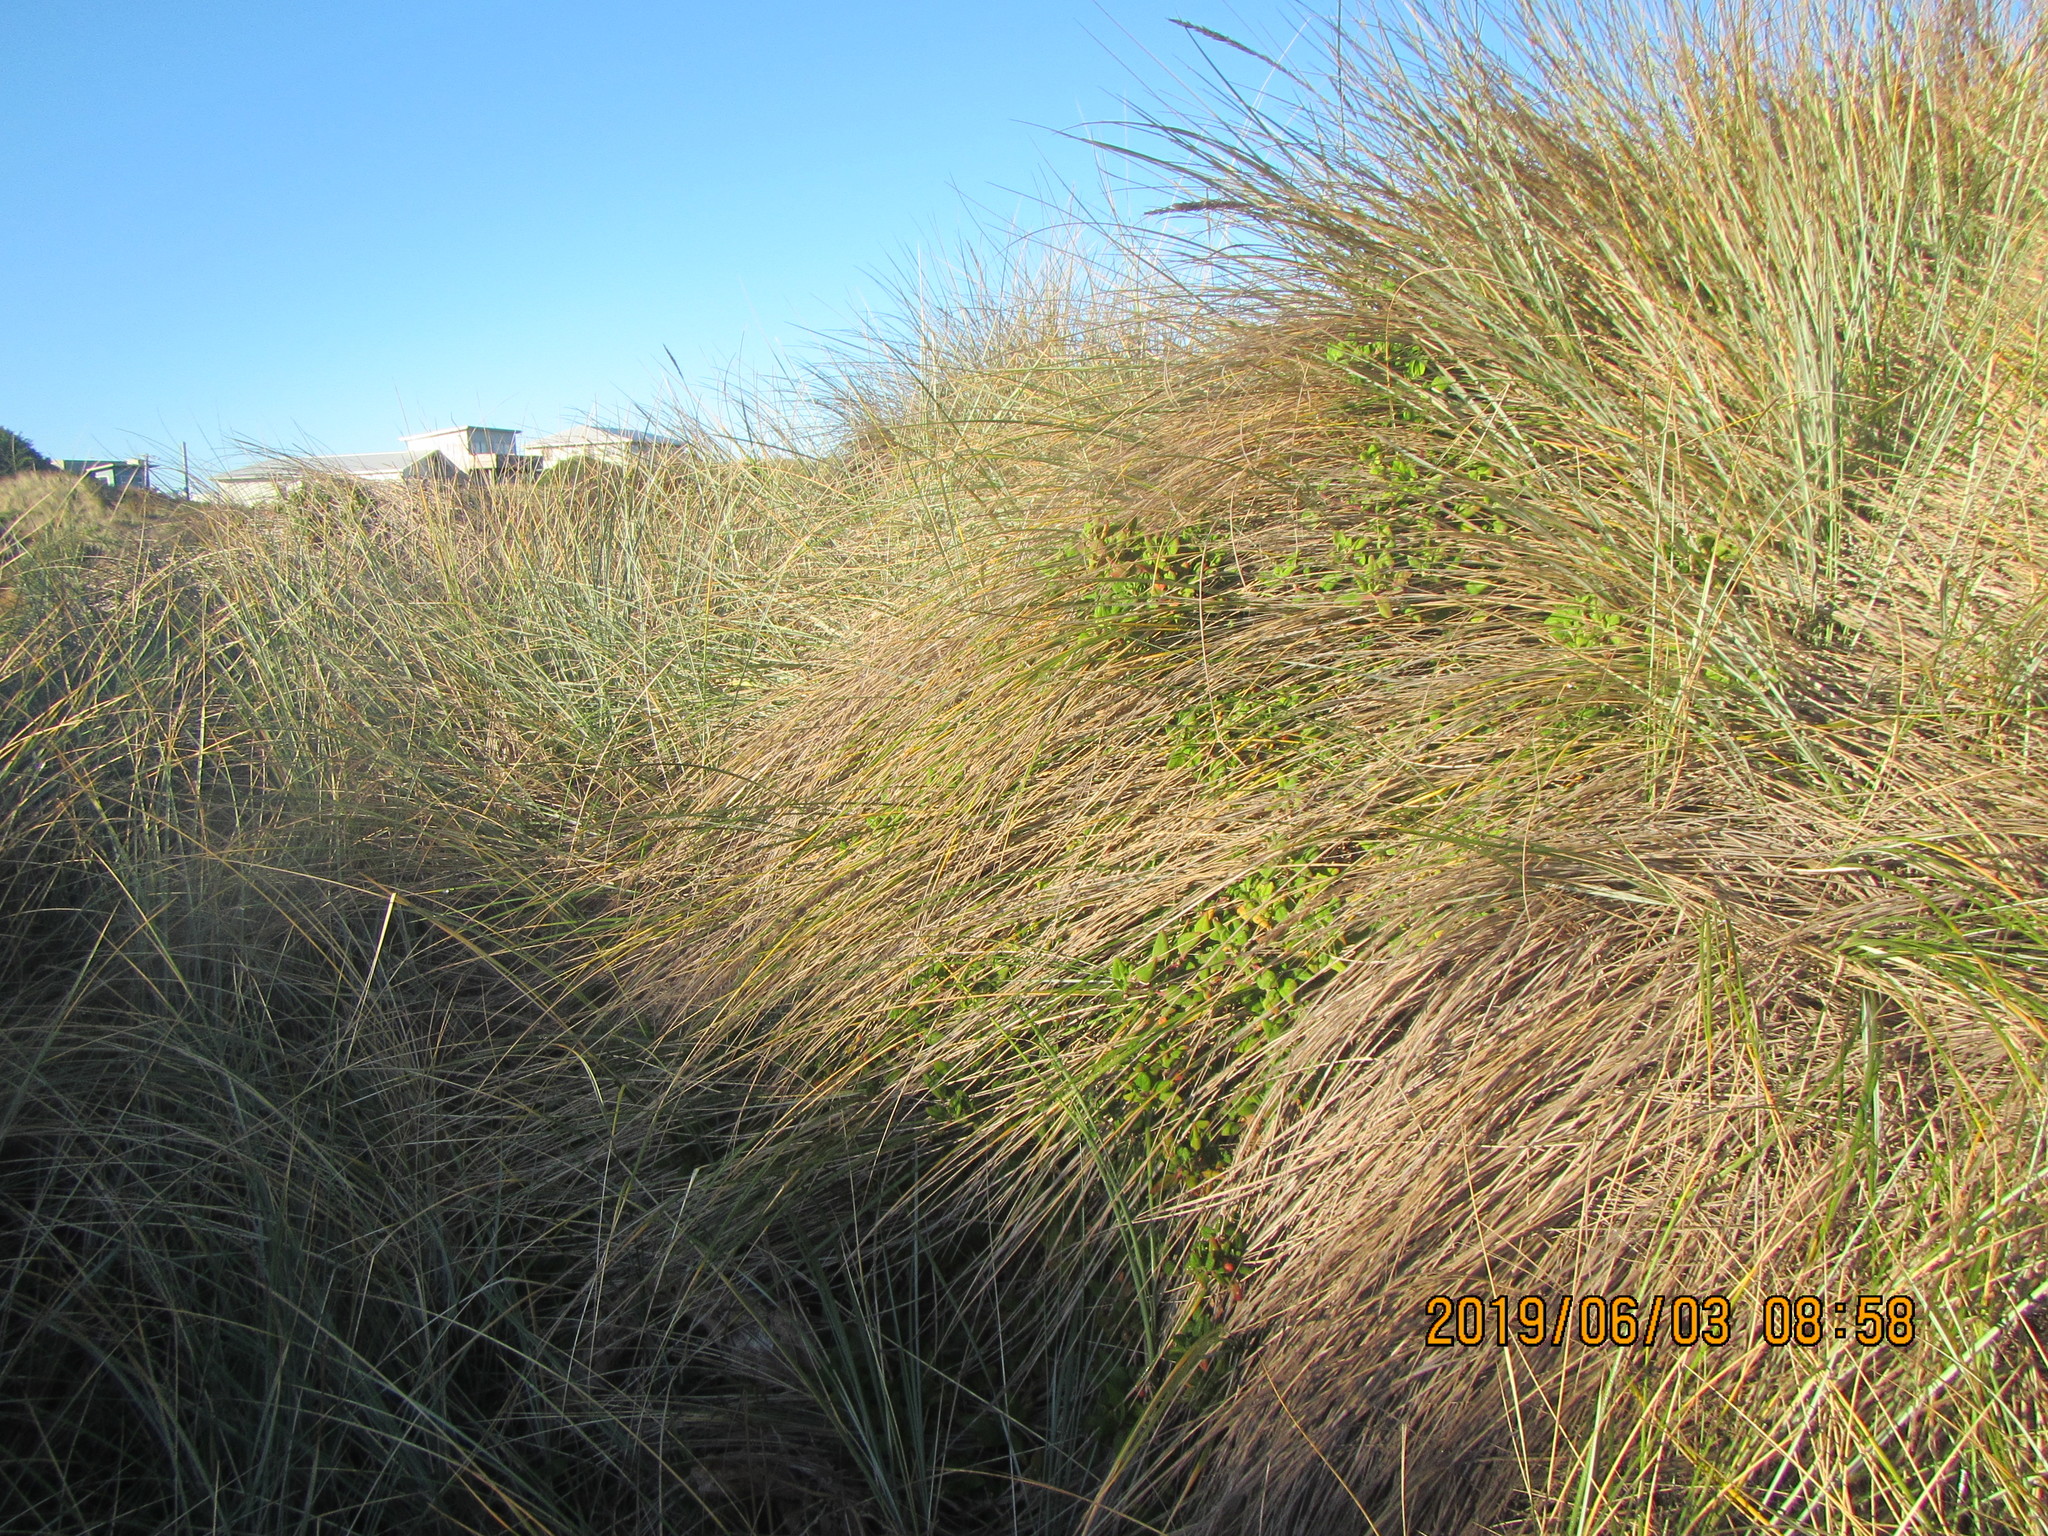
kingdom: Plantae
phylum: Tracheophyta
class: Magnoliopsida
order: Caryophyllales
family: Aizoaceae
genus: Tetragonia
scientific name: Tetragonia implexicoma
